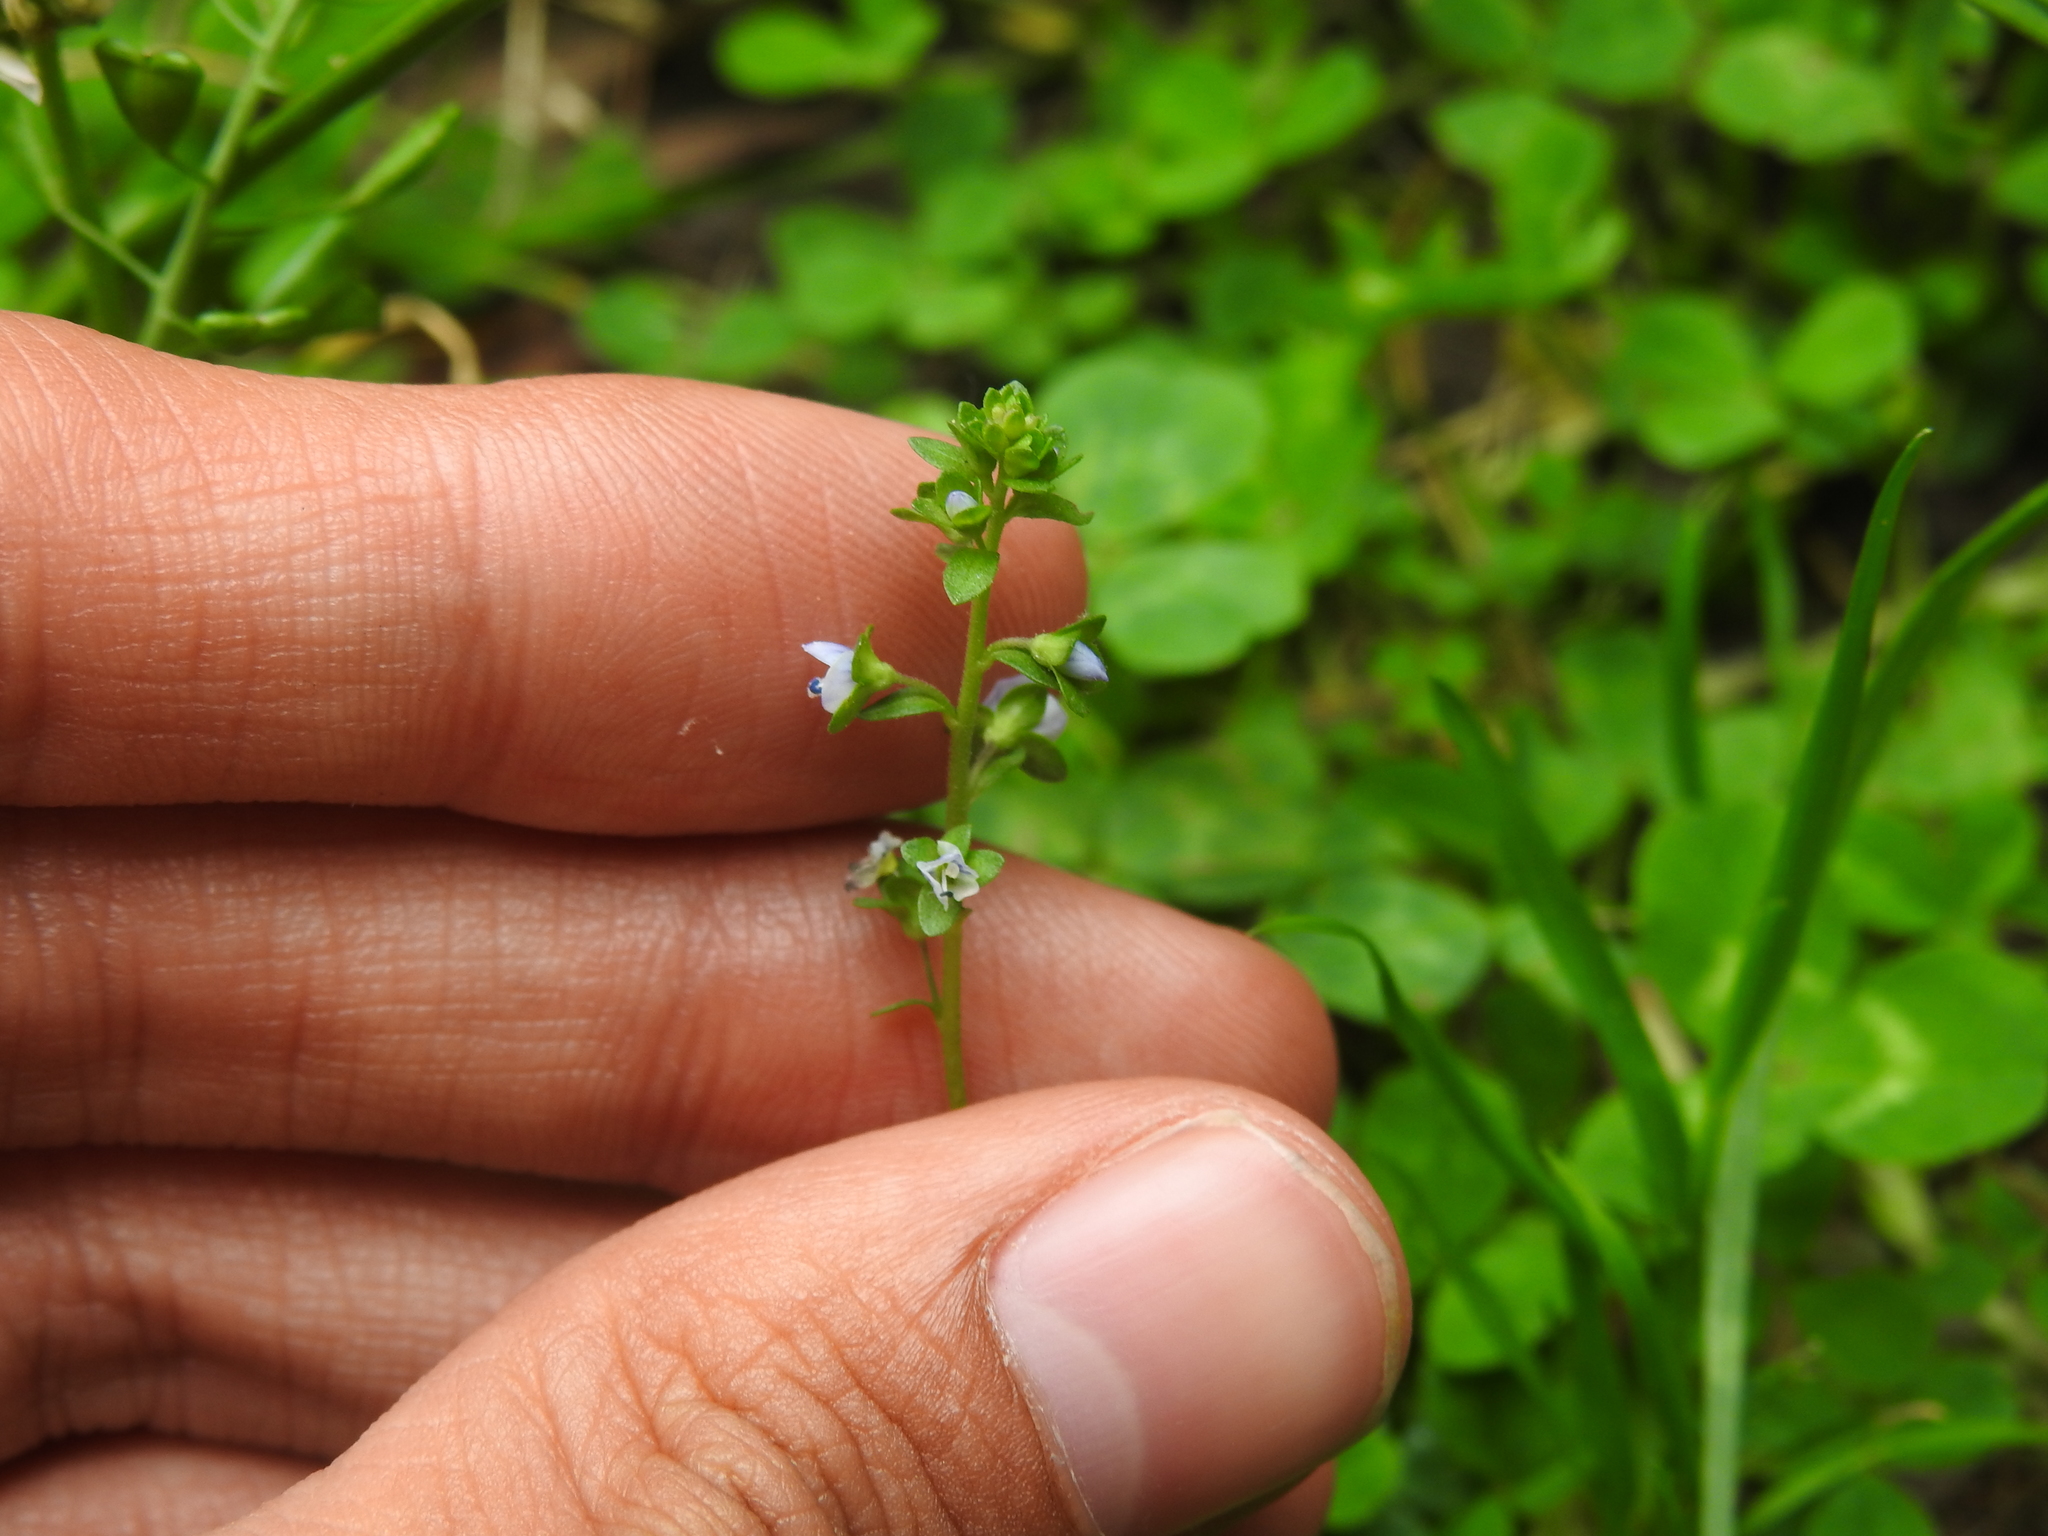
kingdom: Plantae
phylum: Tracheophyta
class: Magnoliopsida
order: Lamiales
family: Plantaginaceae
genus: Veronica
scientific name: Veronica serpyllifolia
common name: Thyme-leaved speedwell
